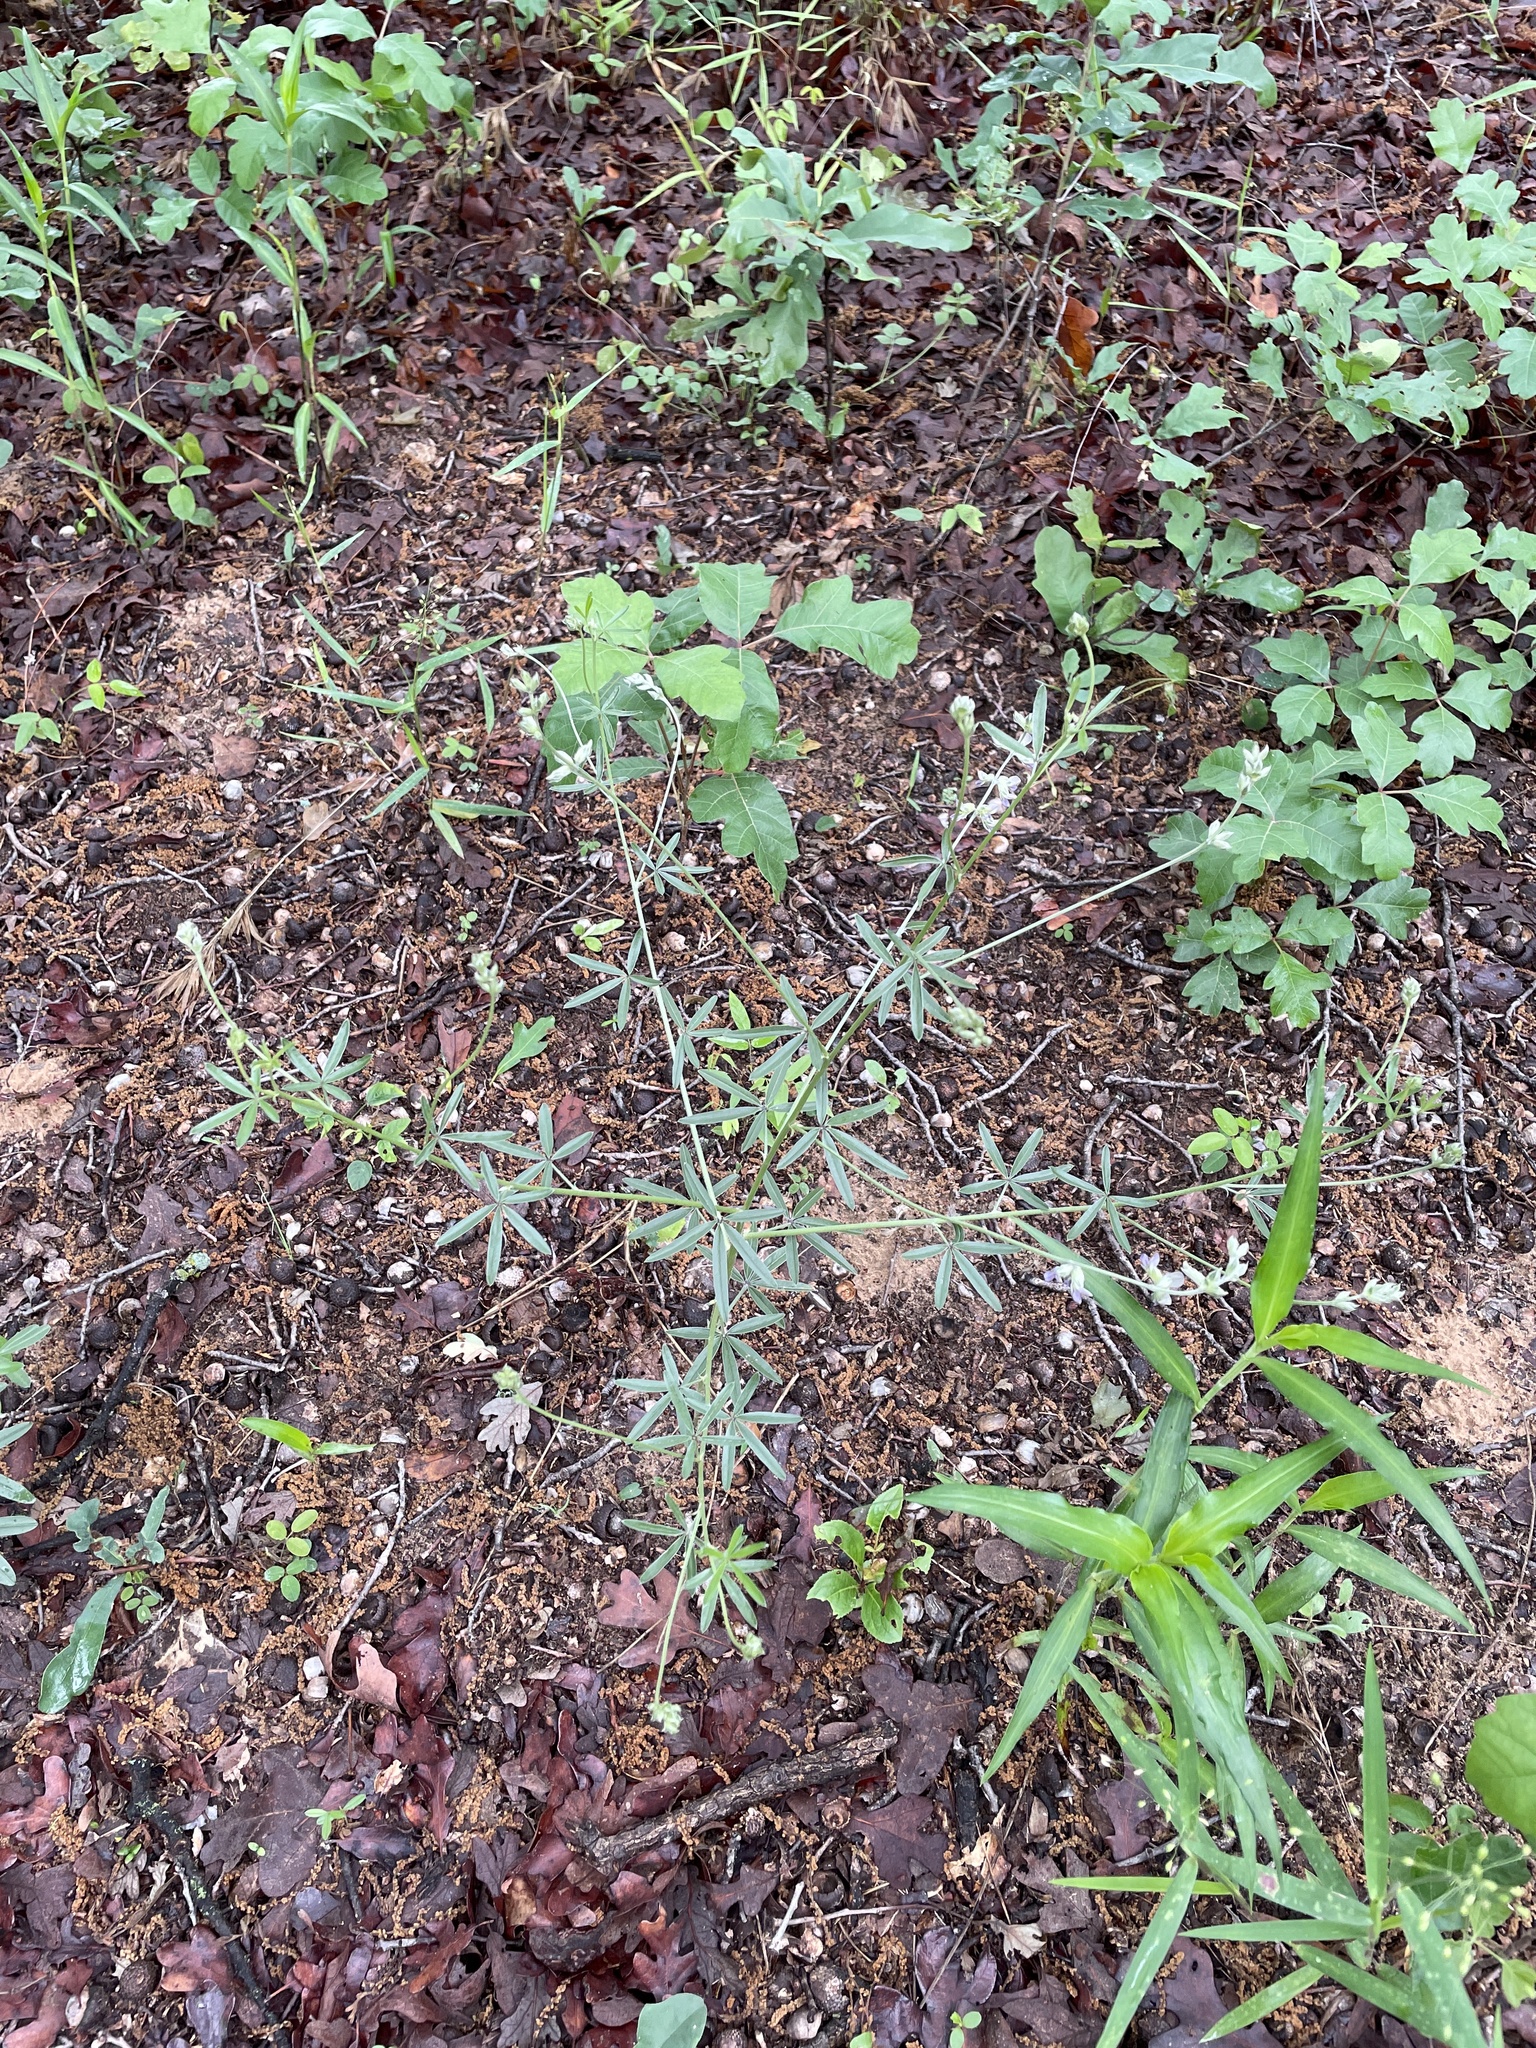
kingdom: Plantae
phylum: Tracheophyta
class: Magnoliopsida
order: Fabales
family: Fabaceae
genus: Pediomelum
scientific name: Pediomelum digitatum
